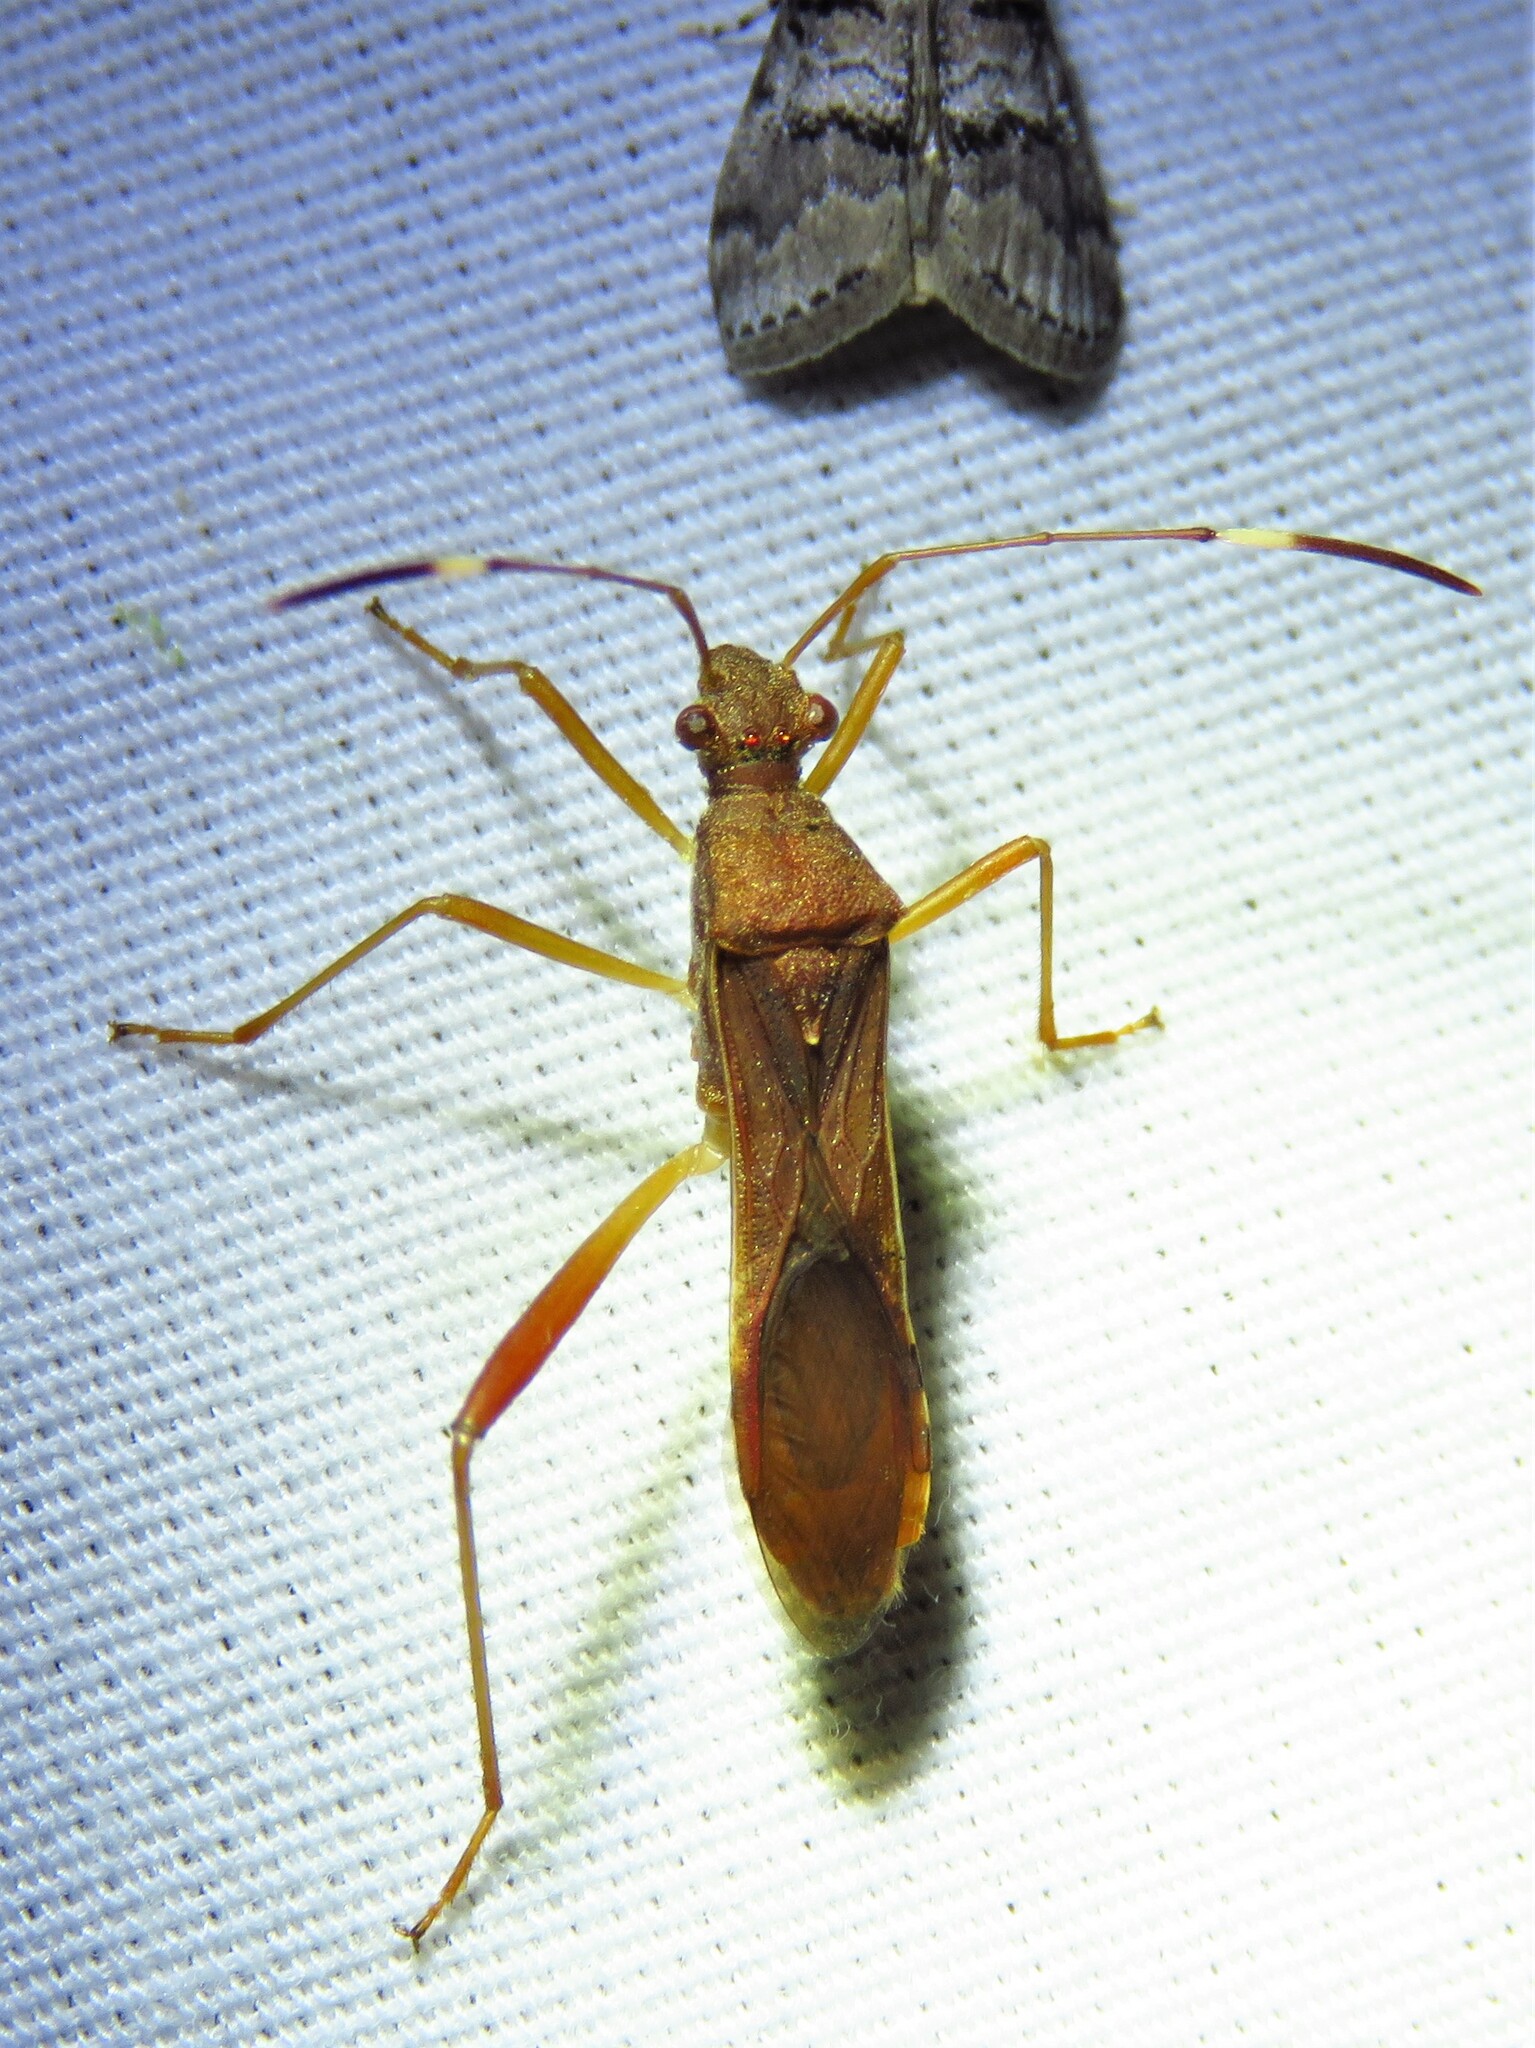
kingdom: Animalia
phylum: Arthropoda
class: Insecta
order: Hemiptera
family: Alydidae
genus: Megalotomus
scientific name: Megalotomus quinquespinosus
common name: Lupine bug
